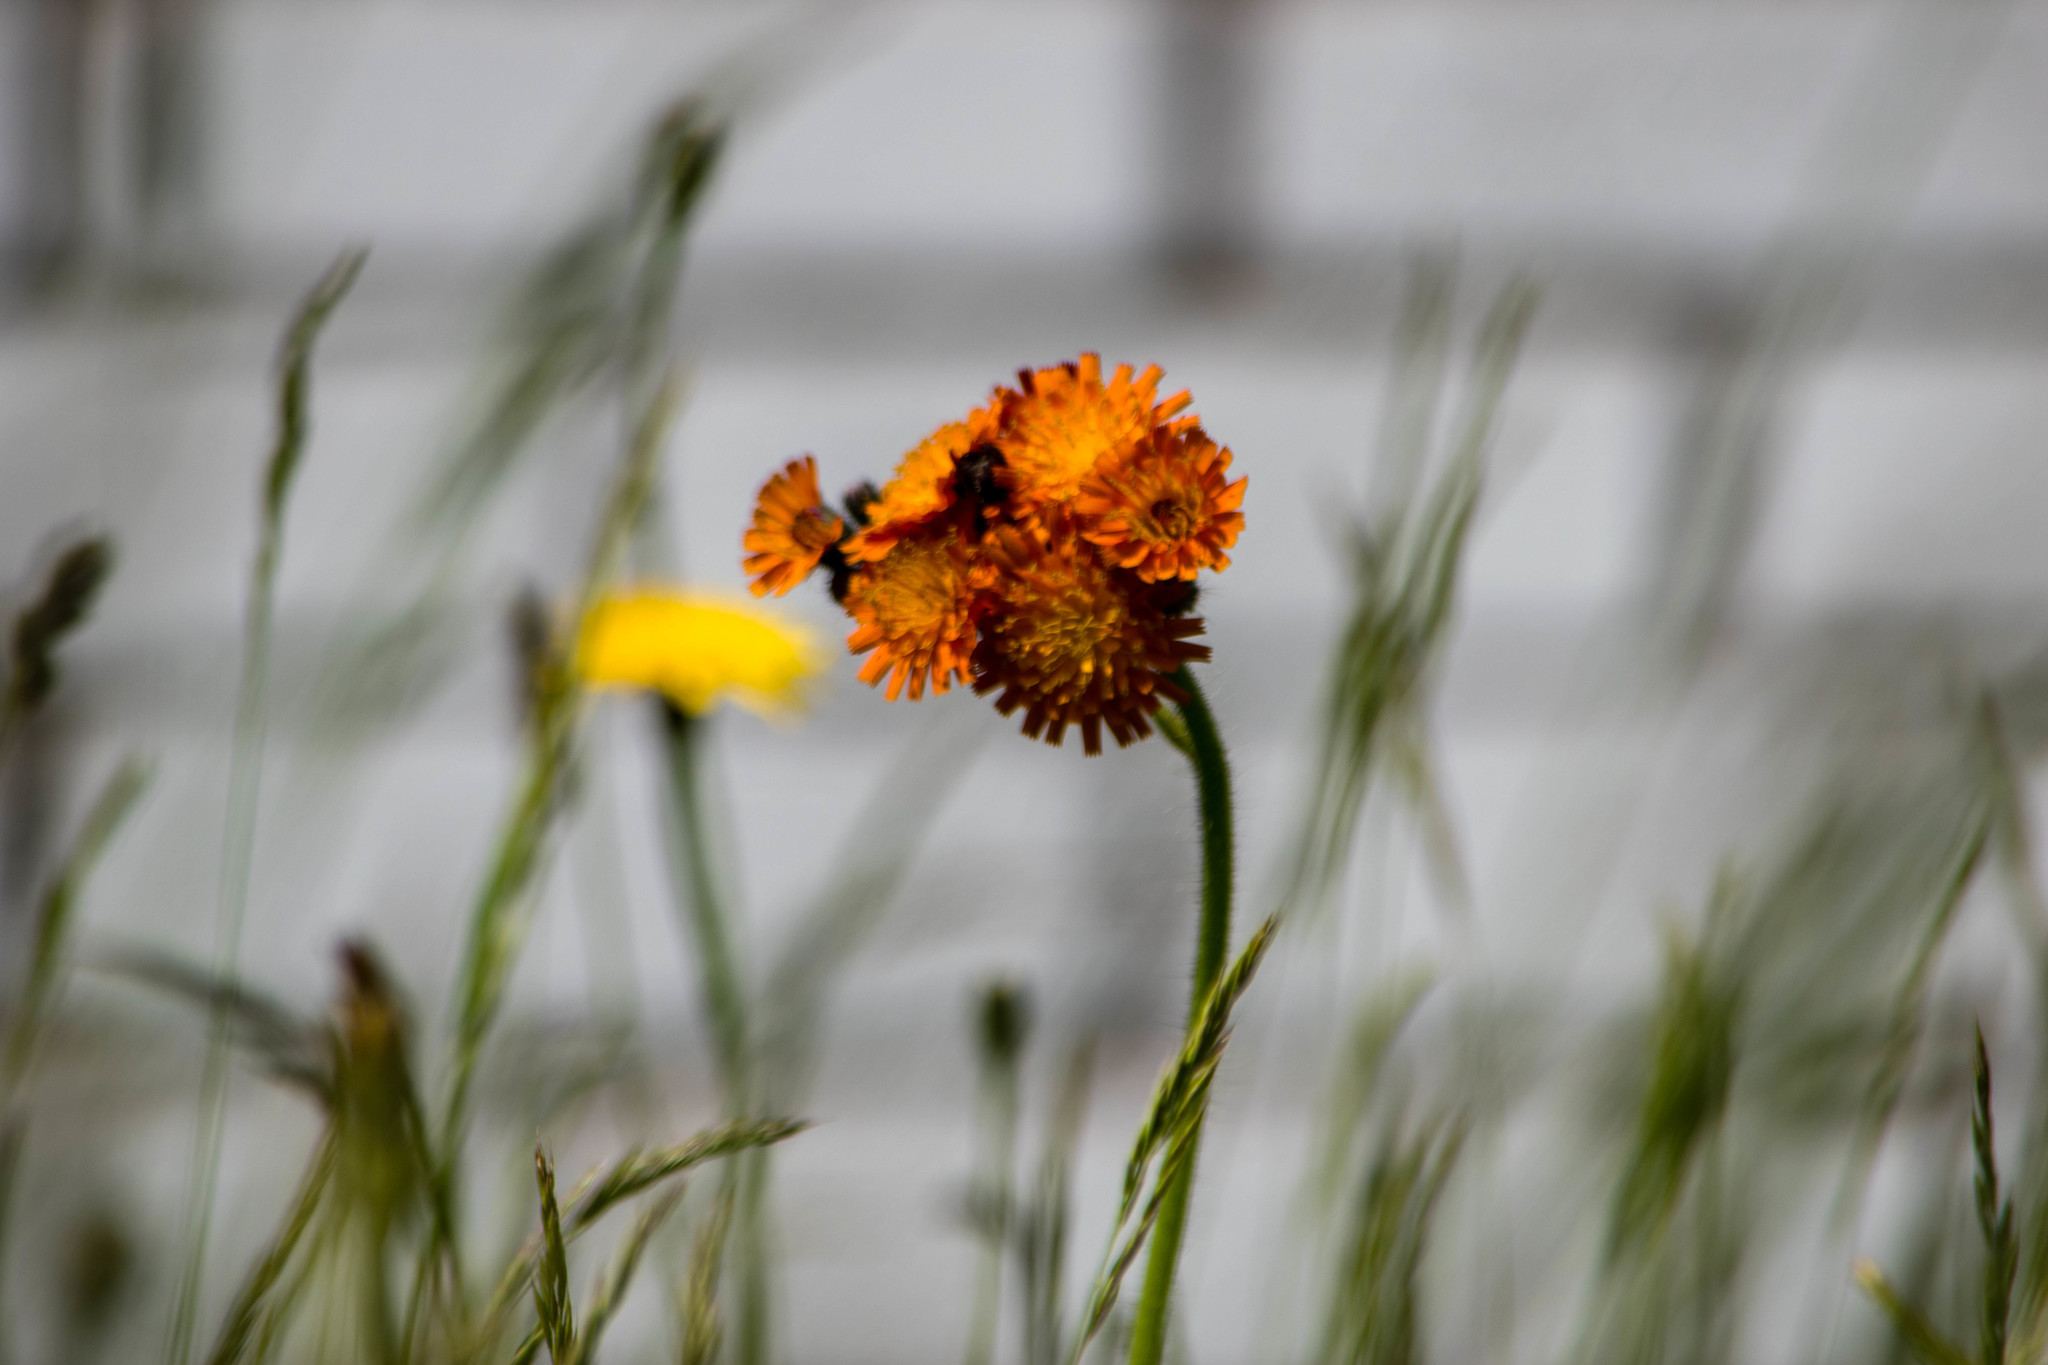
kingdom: Plantae
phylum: Tracheophyta
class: Magnoliopsida
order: Asterales
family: Asteraceae
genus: Pilosella
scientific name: Pilosella aurantiaca
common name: Fox-and-cubs
